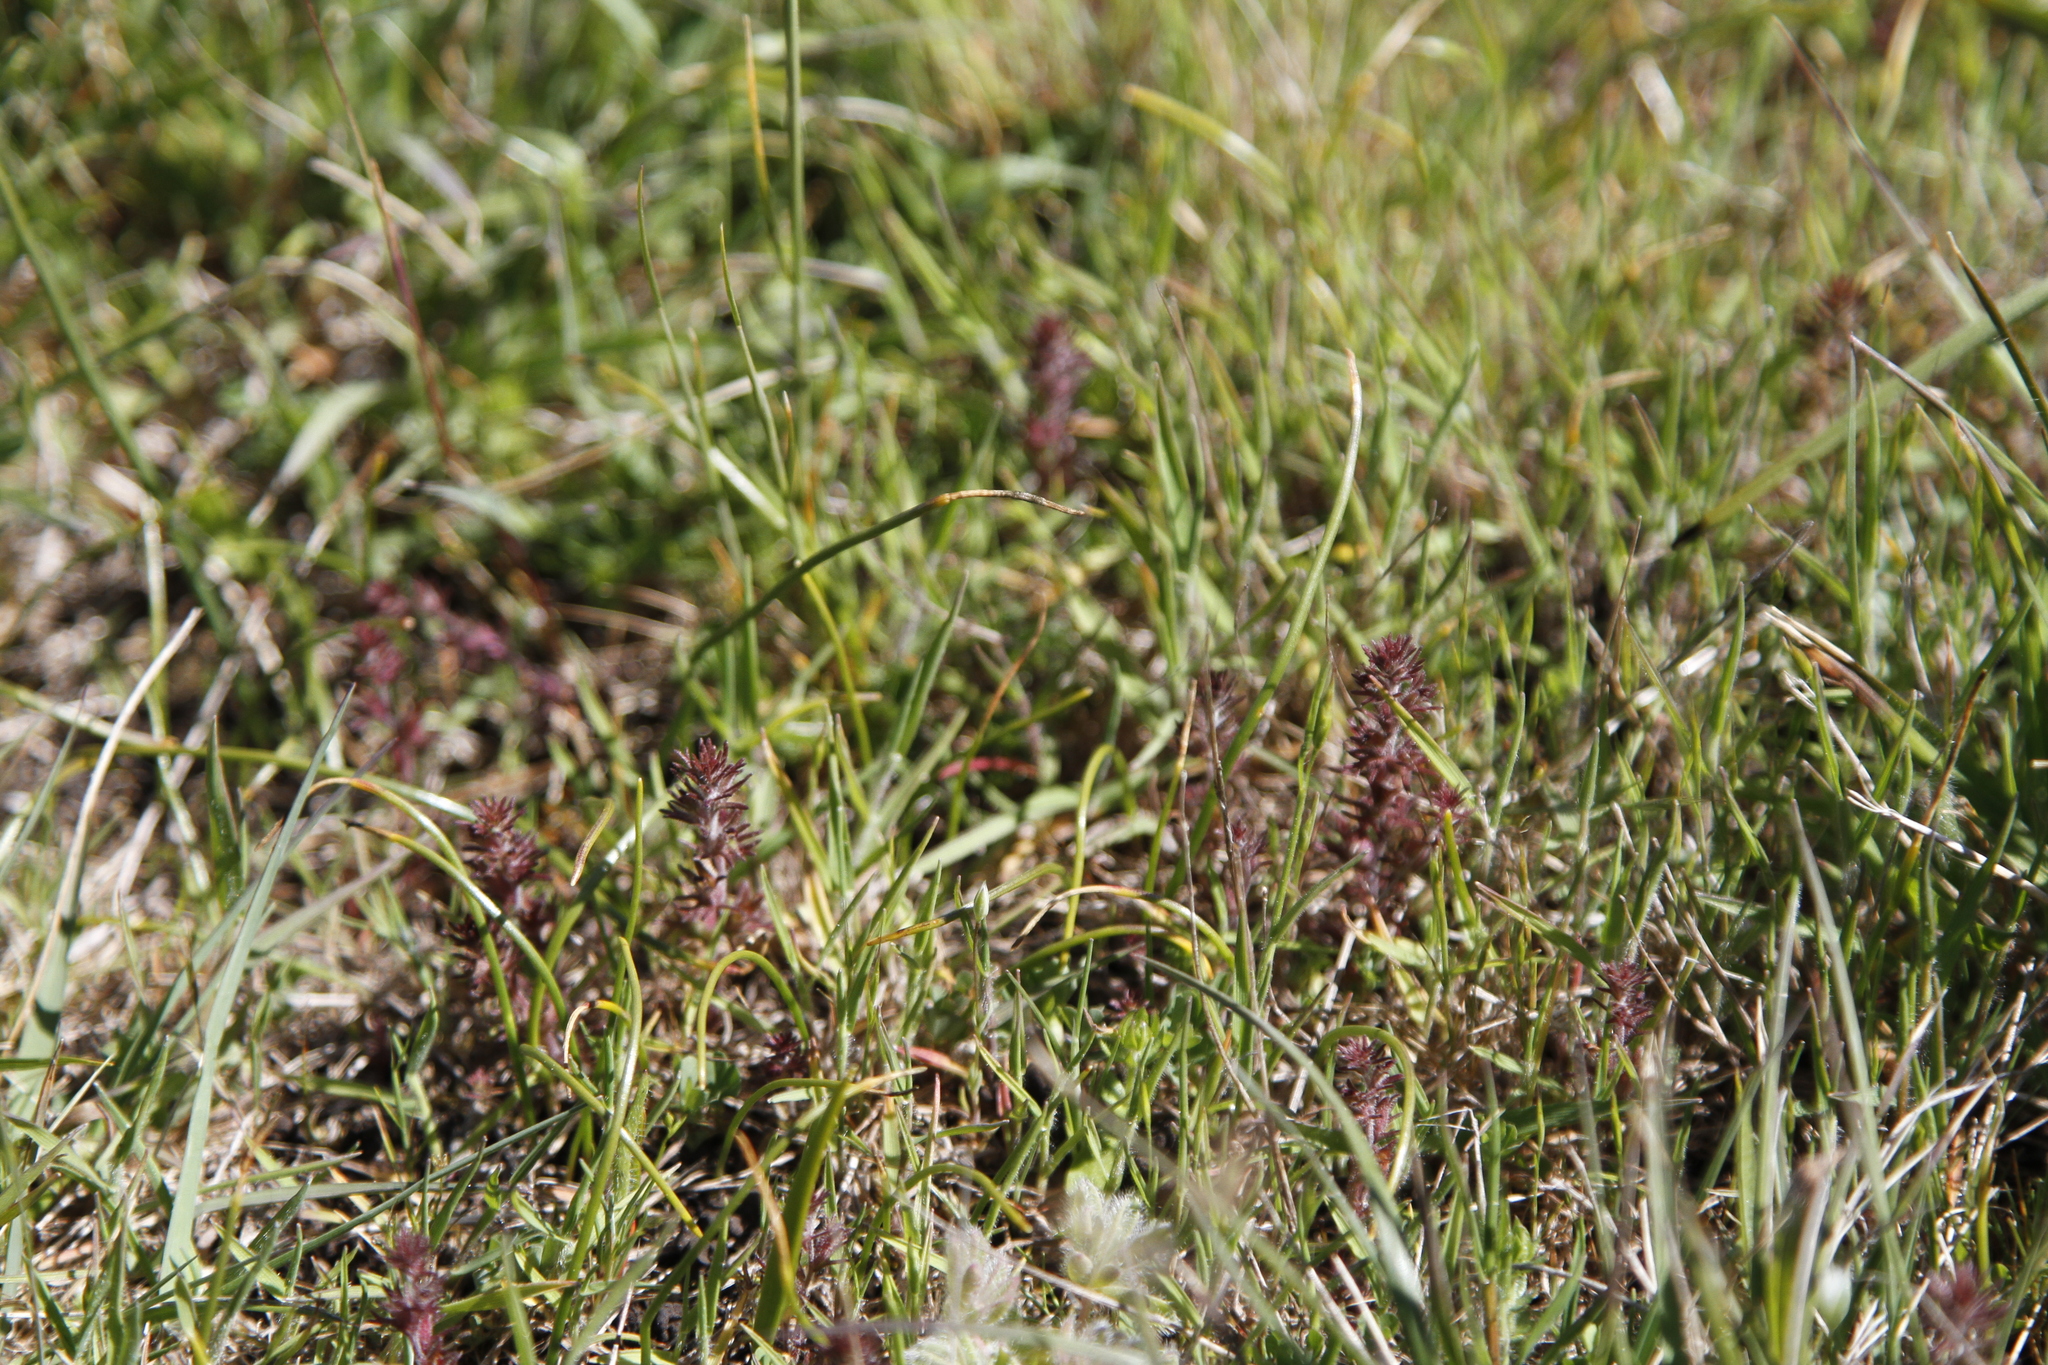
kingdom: Plantae
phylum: Tracheophyta
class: Magnoliopsida
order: Lamiales
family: Orobanchaceae
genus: Triphysaria
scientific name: Triphysaria pusilla
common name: Dwarf false owl-clover
